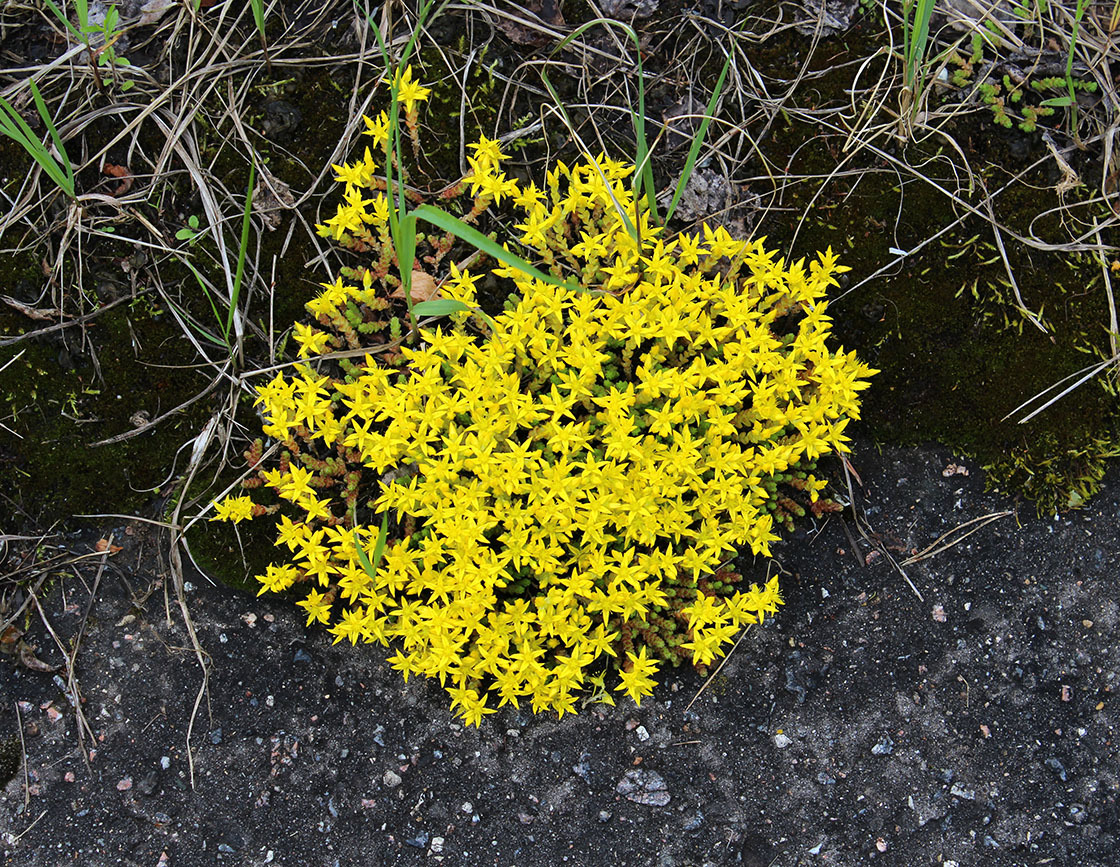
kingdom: Plantae
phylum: Tracheophyta
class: Magnoliopsida
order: Saxifragales
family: Crassulaceae
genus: Sedum
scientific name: Sedum acre
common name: Biting stonecrop
